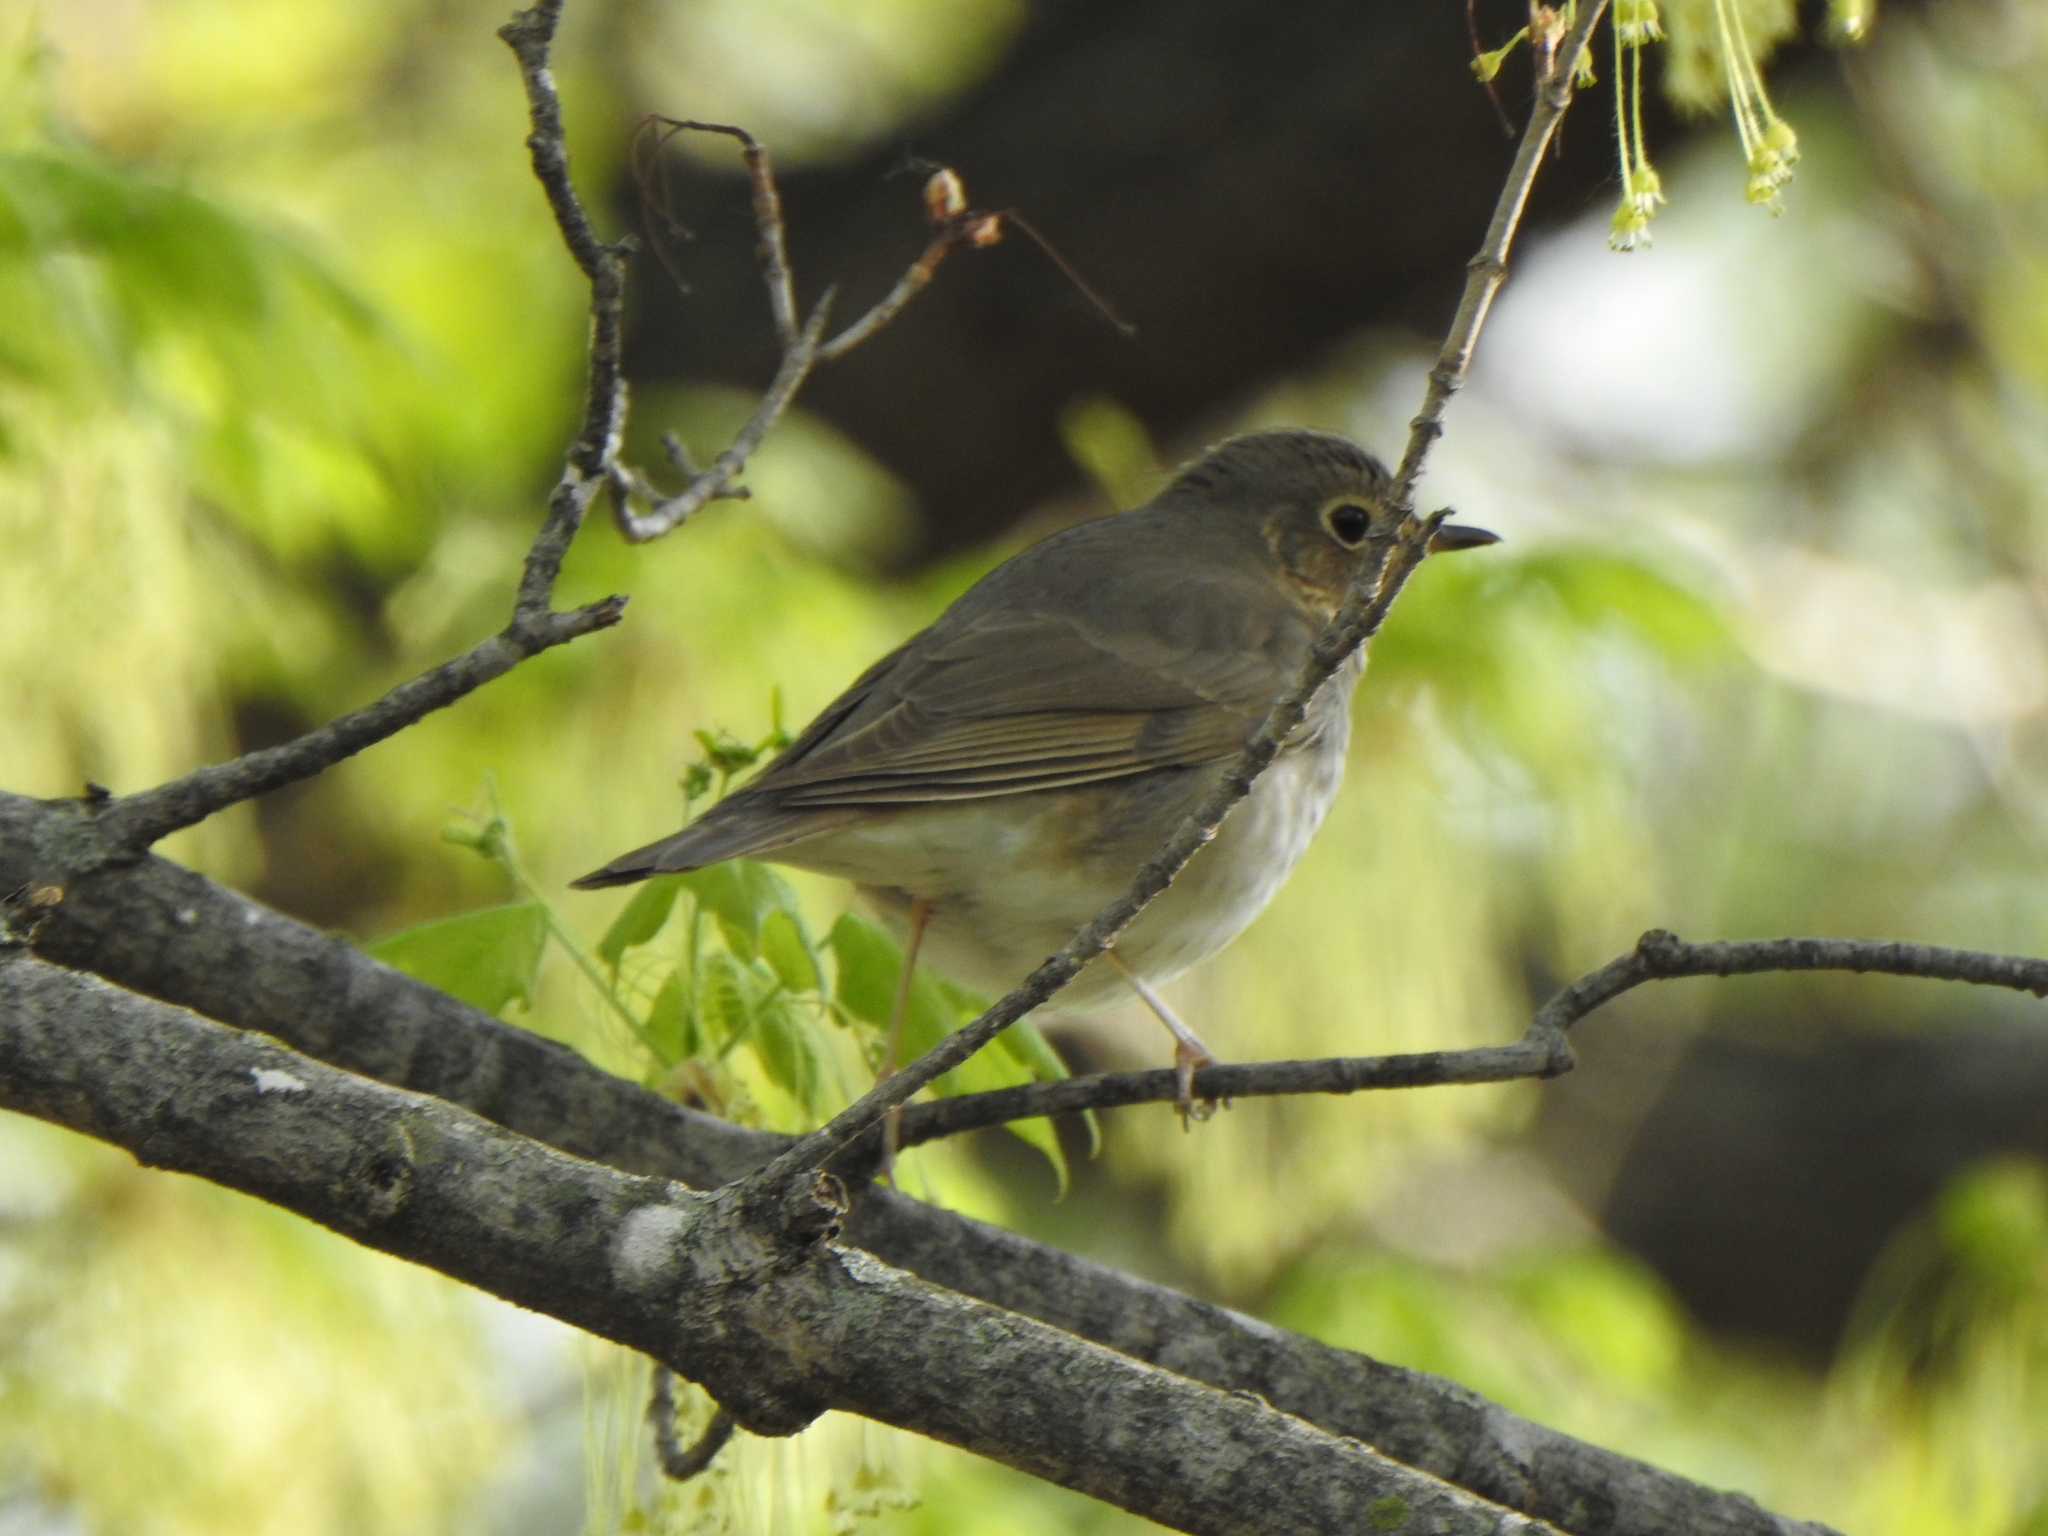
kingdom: Animalia
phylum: Chordata
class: Aves
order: Passeriformes
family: Turdidae
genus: Catharus
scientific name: Catharus ustulatus
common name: Swainson's thrush
